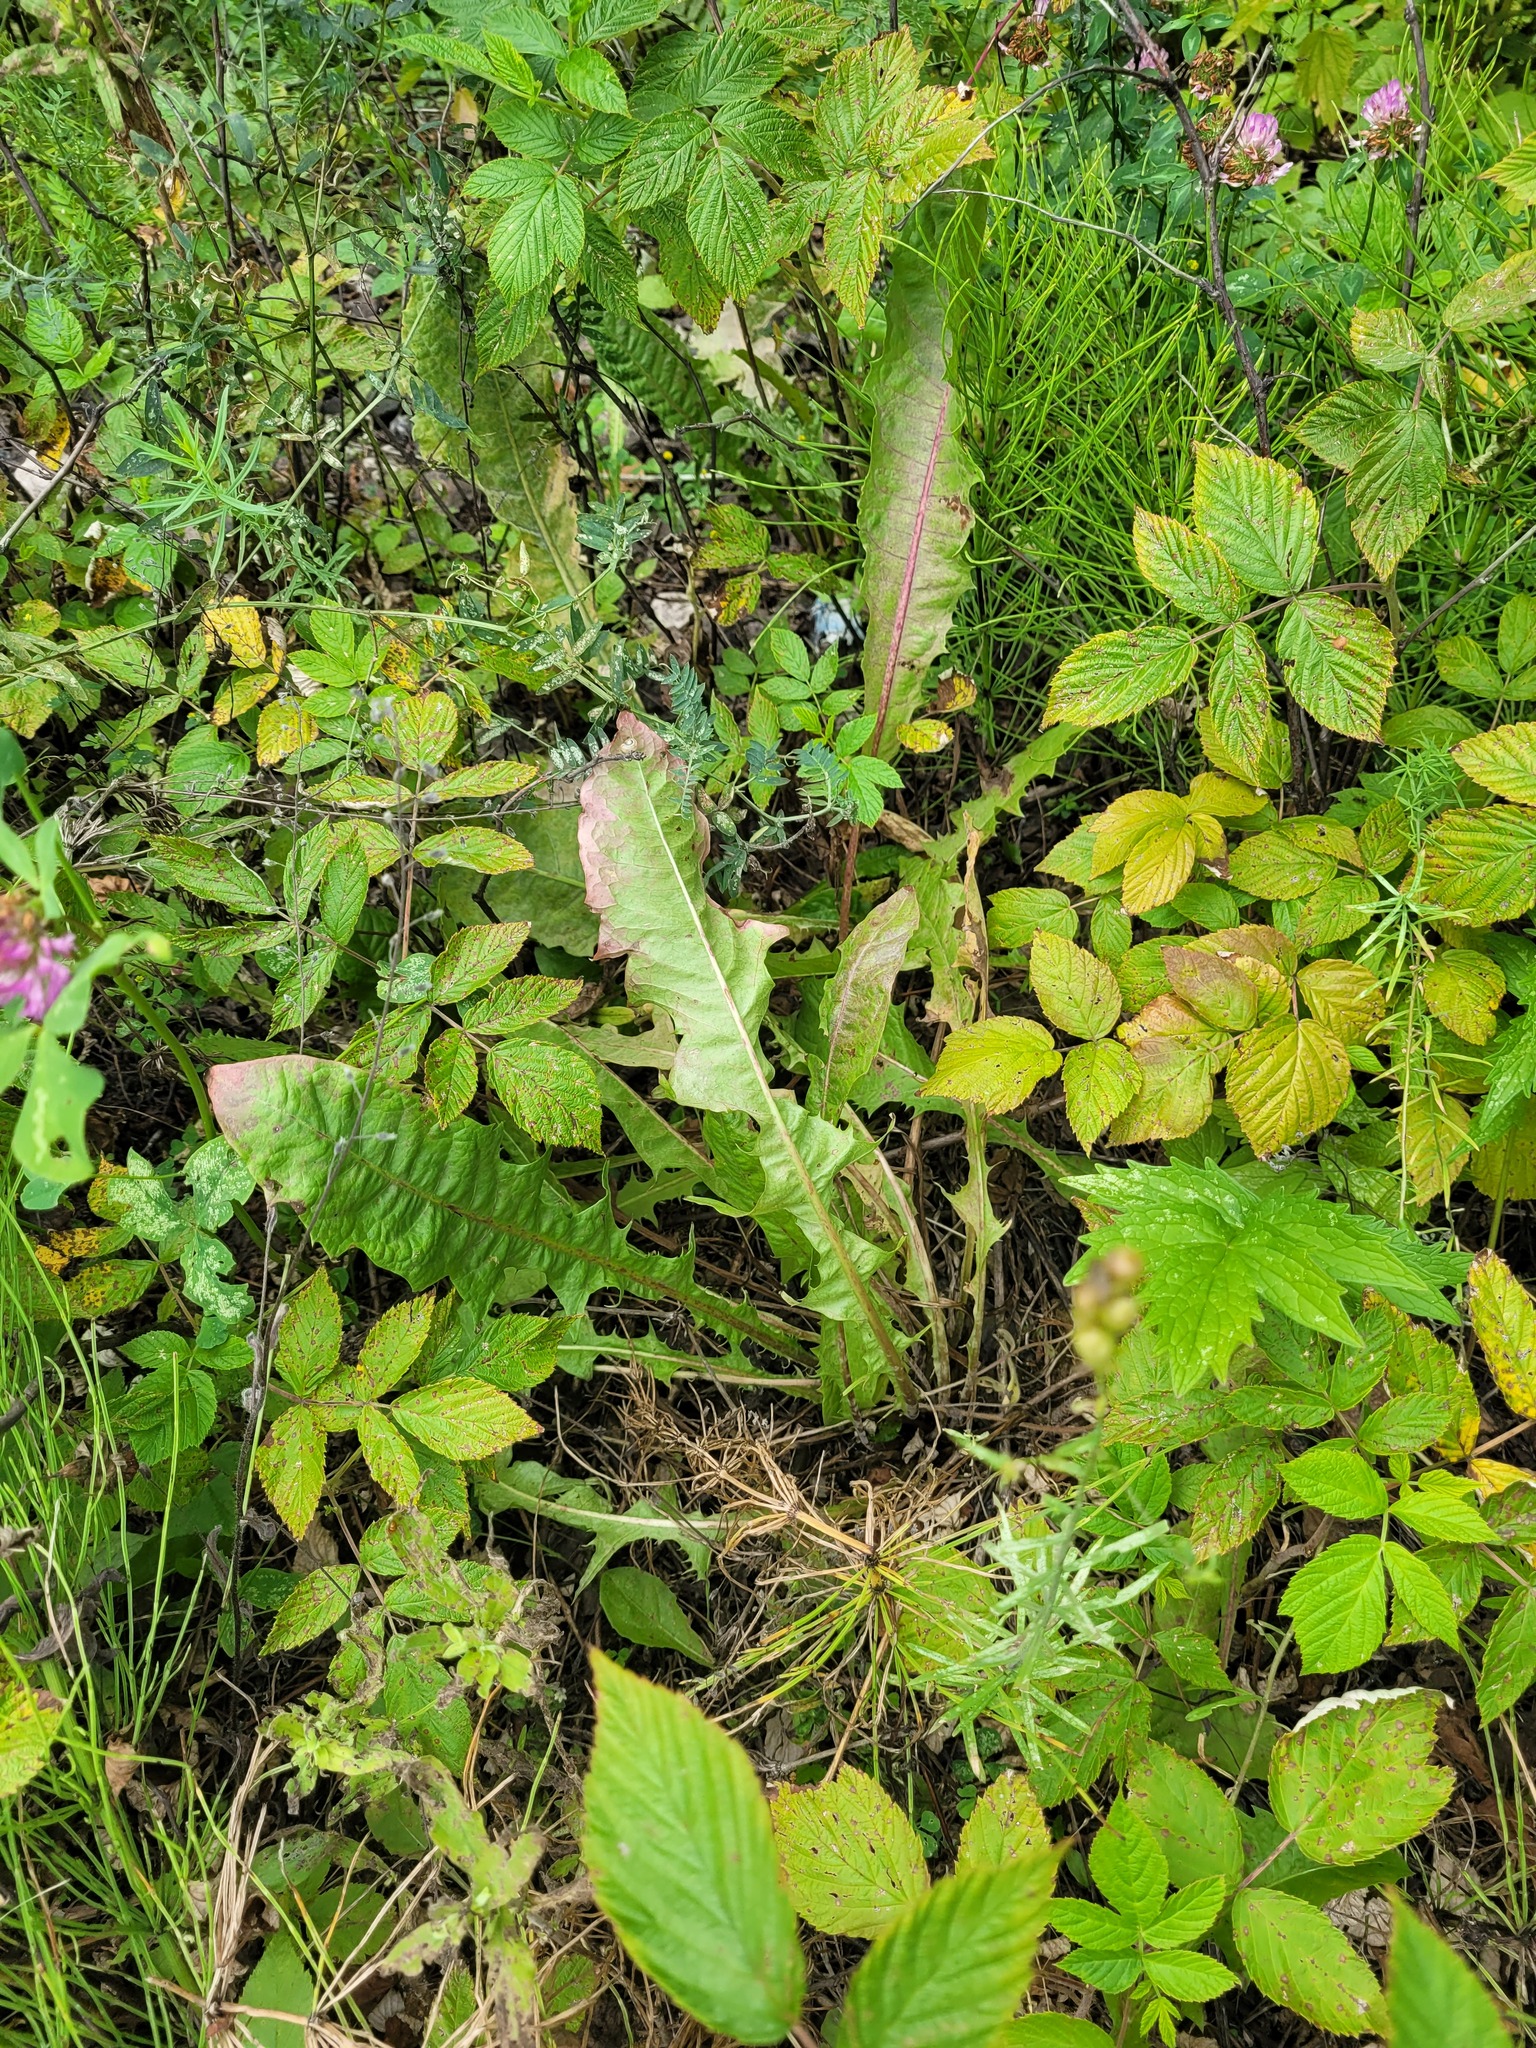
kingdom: Plantae
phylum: Tracheophyta
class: Magnoliopsida
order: Asterales
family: Asteraceae
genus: Taraxacum
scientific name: Taraxacum officinale
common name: Common dandelion
